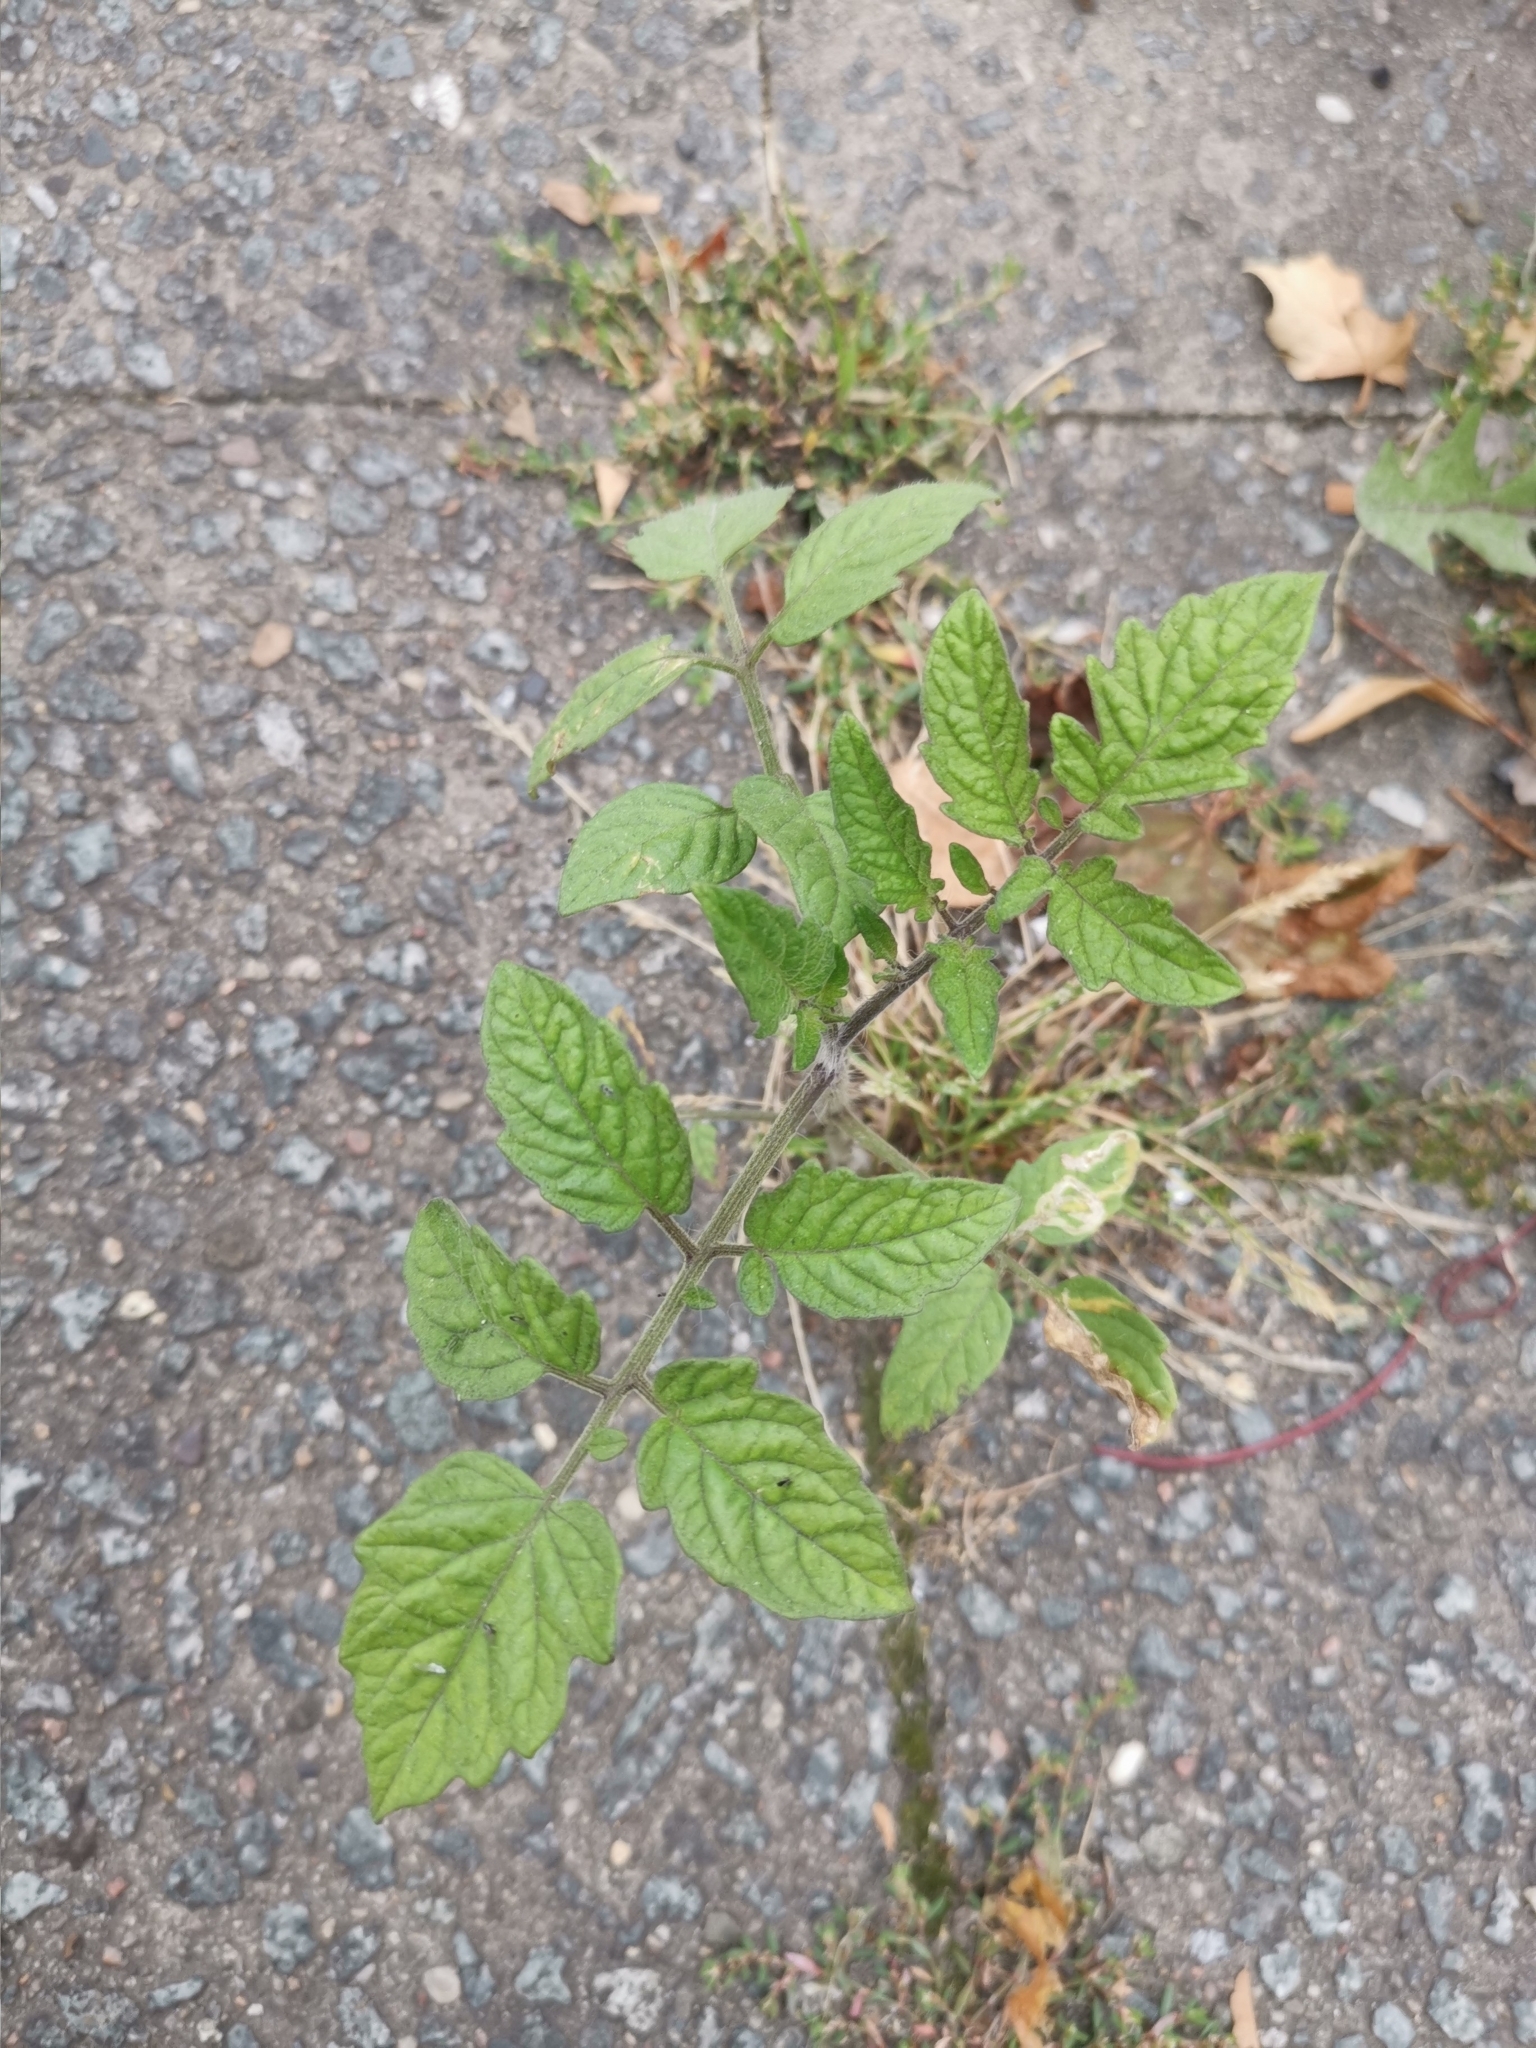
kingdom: Plantae
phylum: Tracheophyta
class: Magnoliopsida
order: Solanales
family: Solanaceae
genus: Solanum
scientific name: Solanum lycopersicum
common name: Garden tomato
